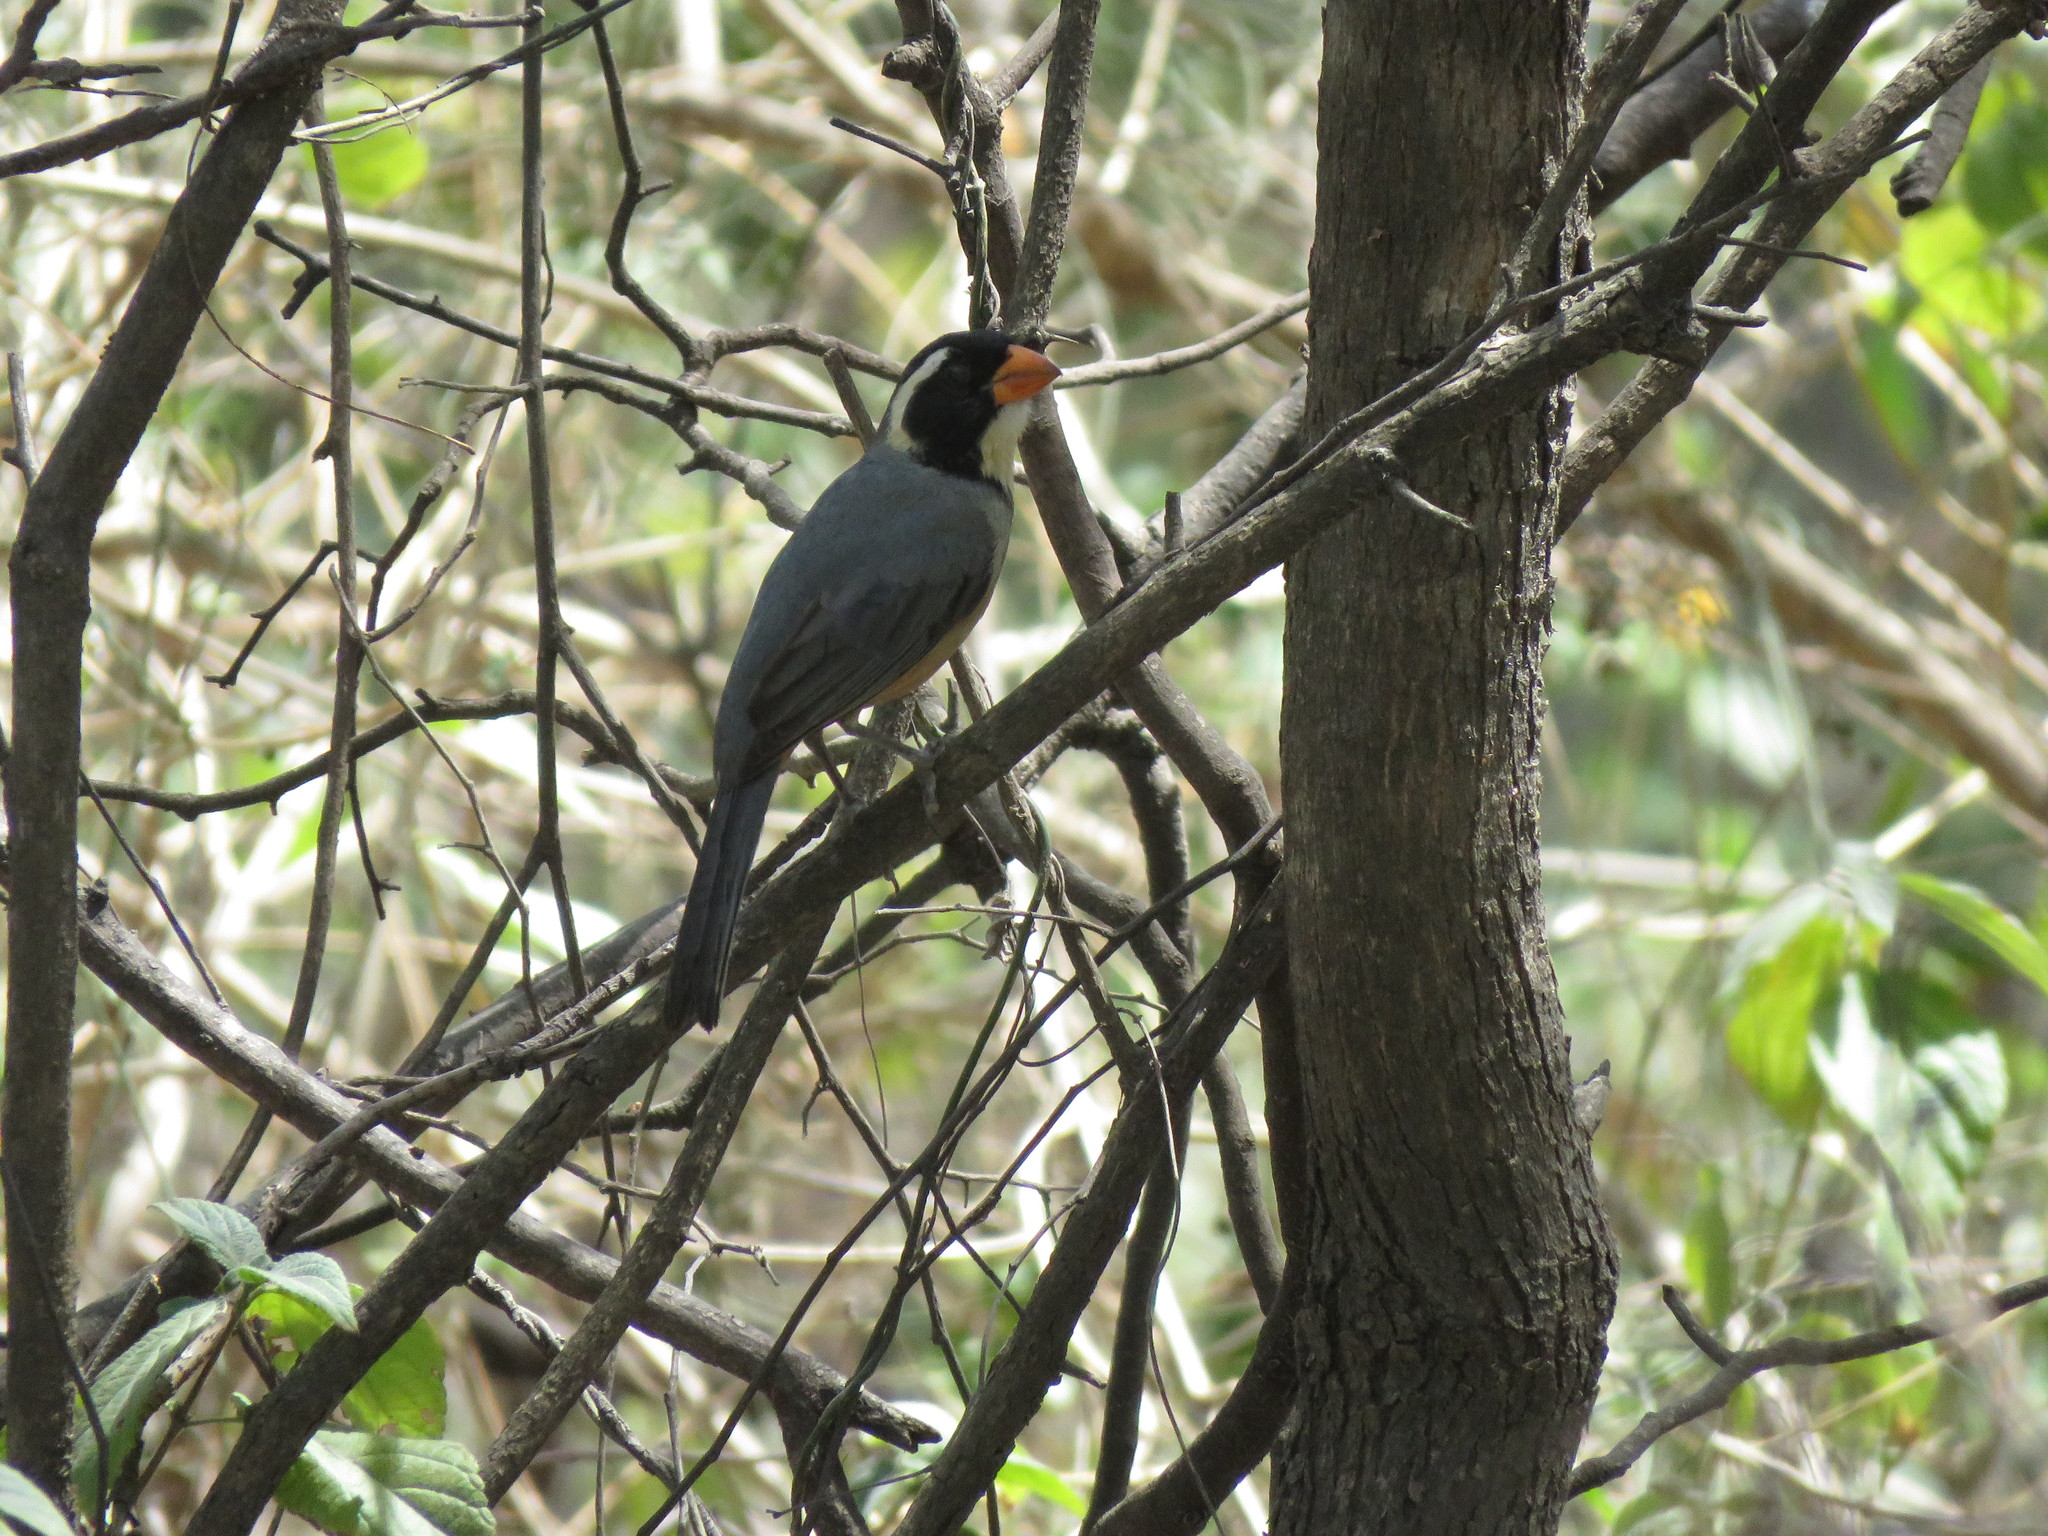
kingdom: Animalia
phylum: Chordata
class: Aves
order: Passeriformes
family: Thraupidae
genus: Saltator
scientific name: Saltator aurantiirostris
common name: Golden-billed saltator
